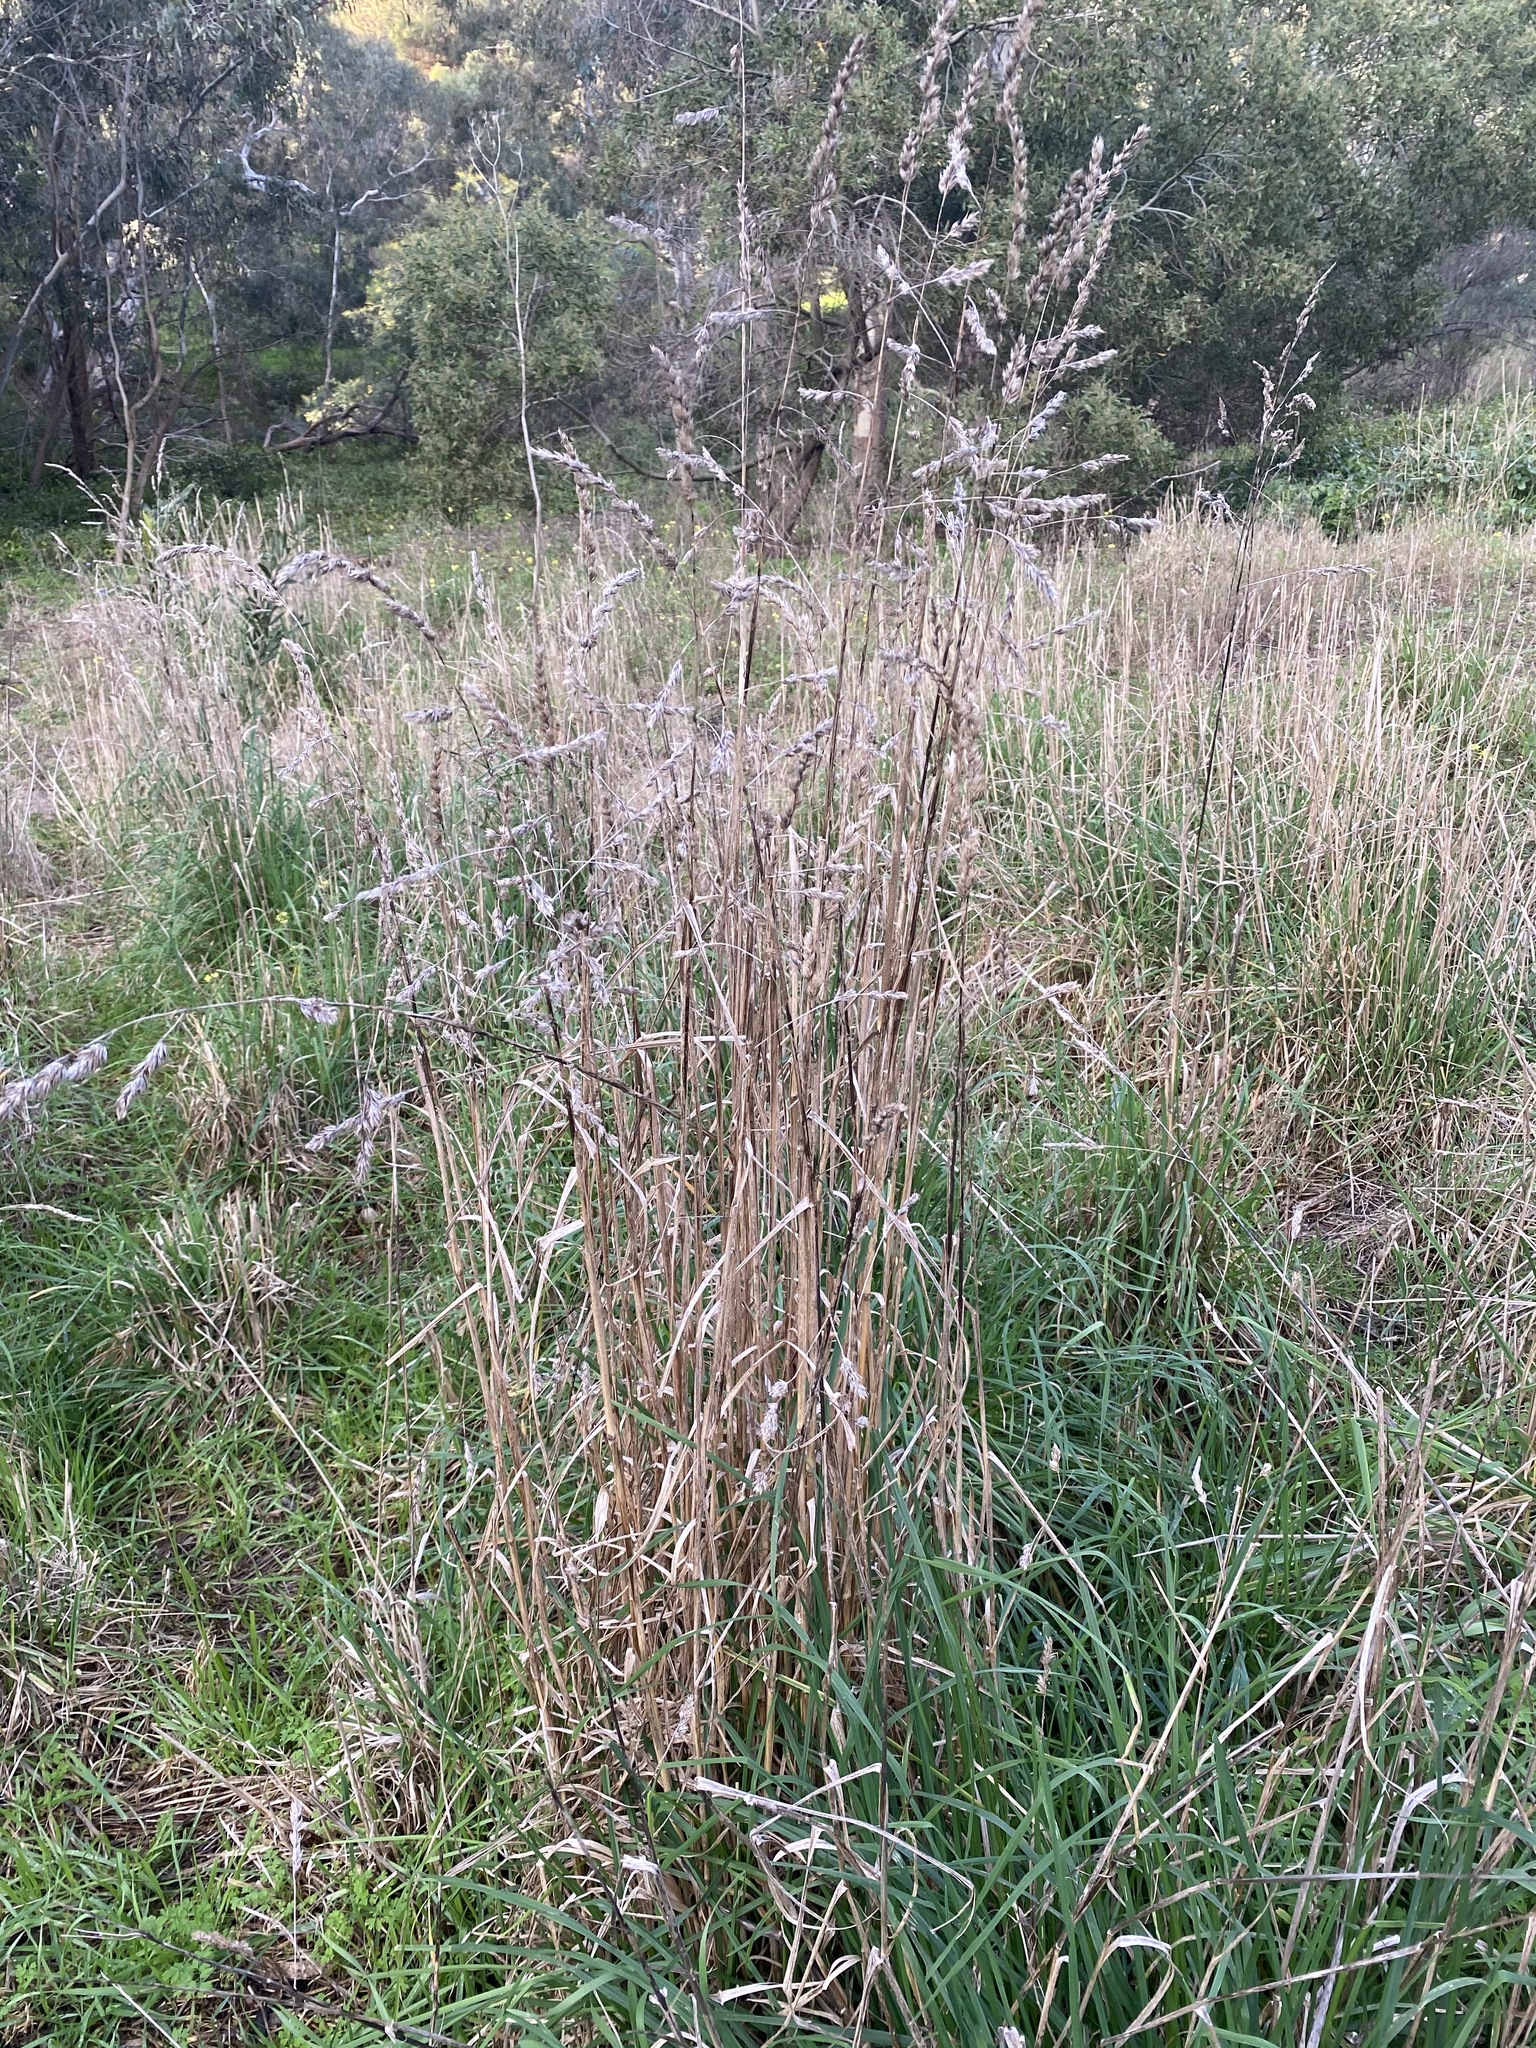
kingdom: Plantae
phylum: Tracheophyta
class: Liliopsida
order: Poales
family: Poaceae
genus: Dactylis
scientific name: Dactylis glomerata
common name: Orchardgrass
